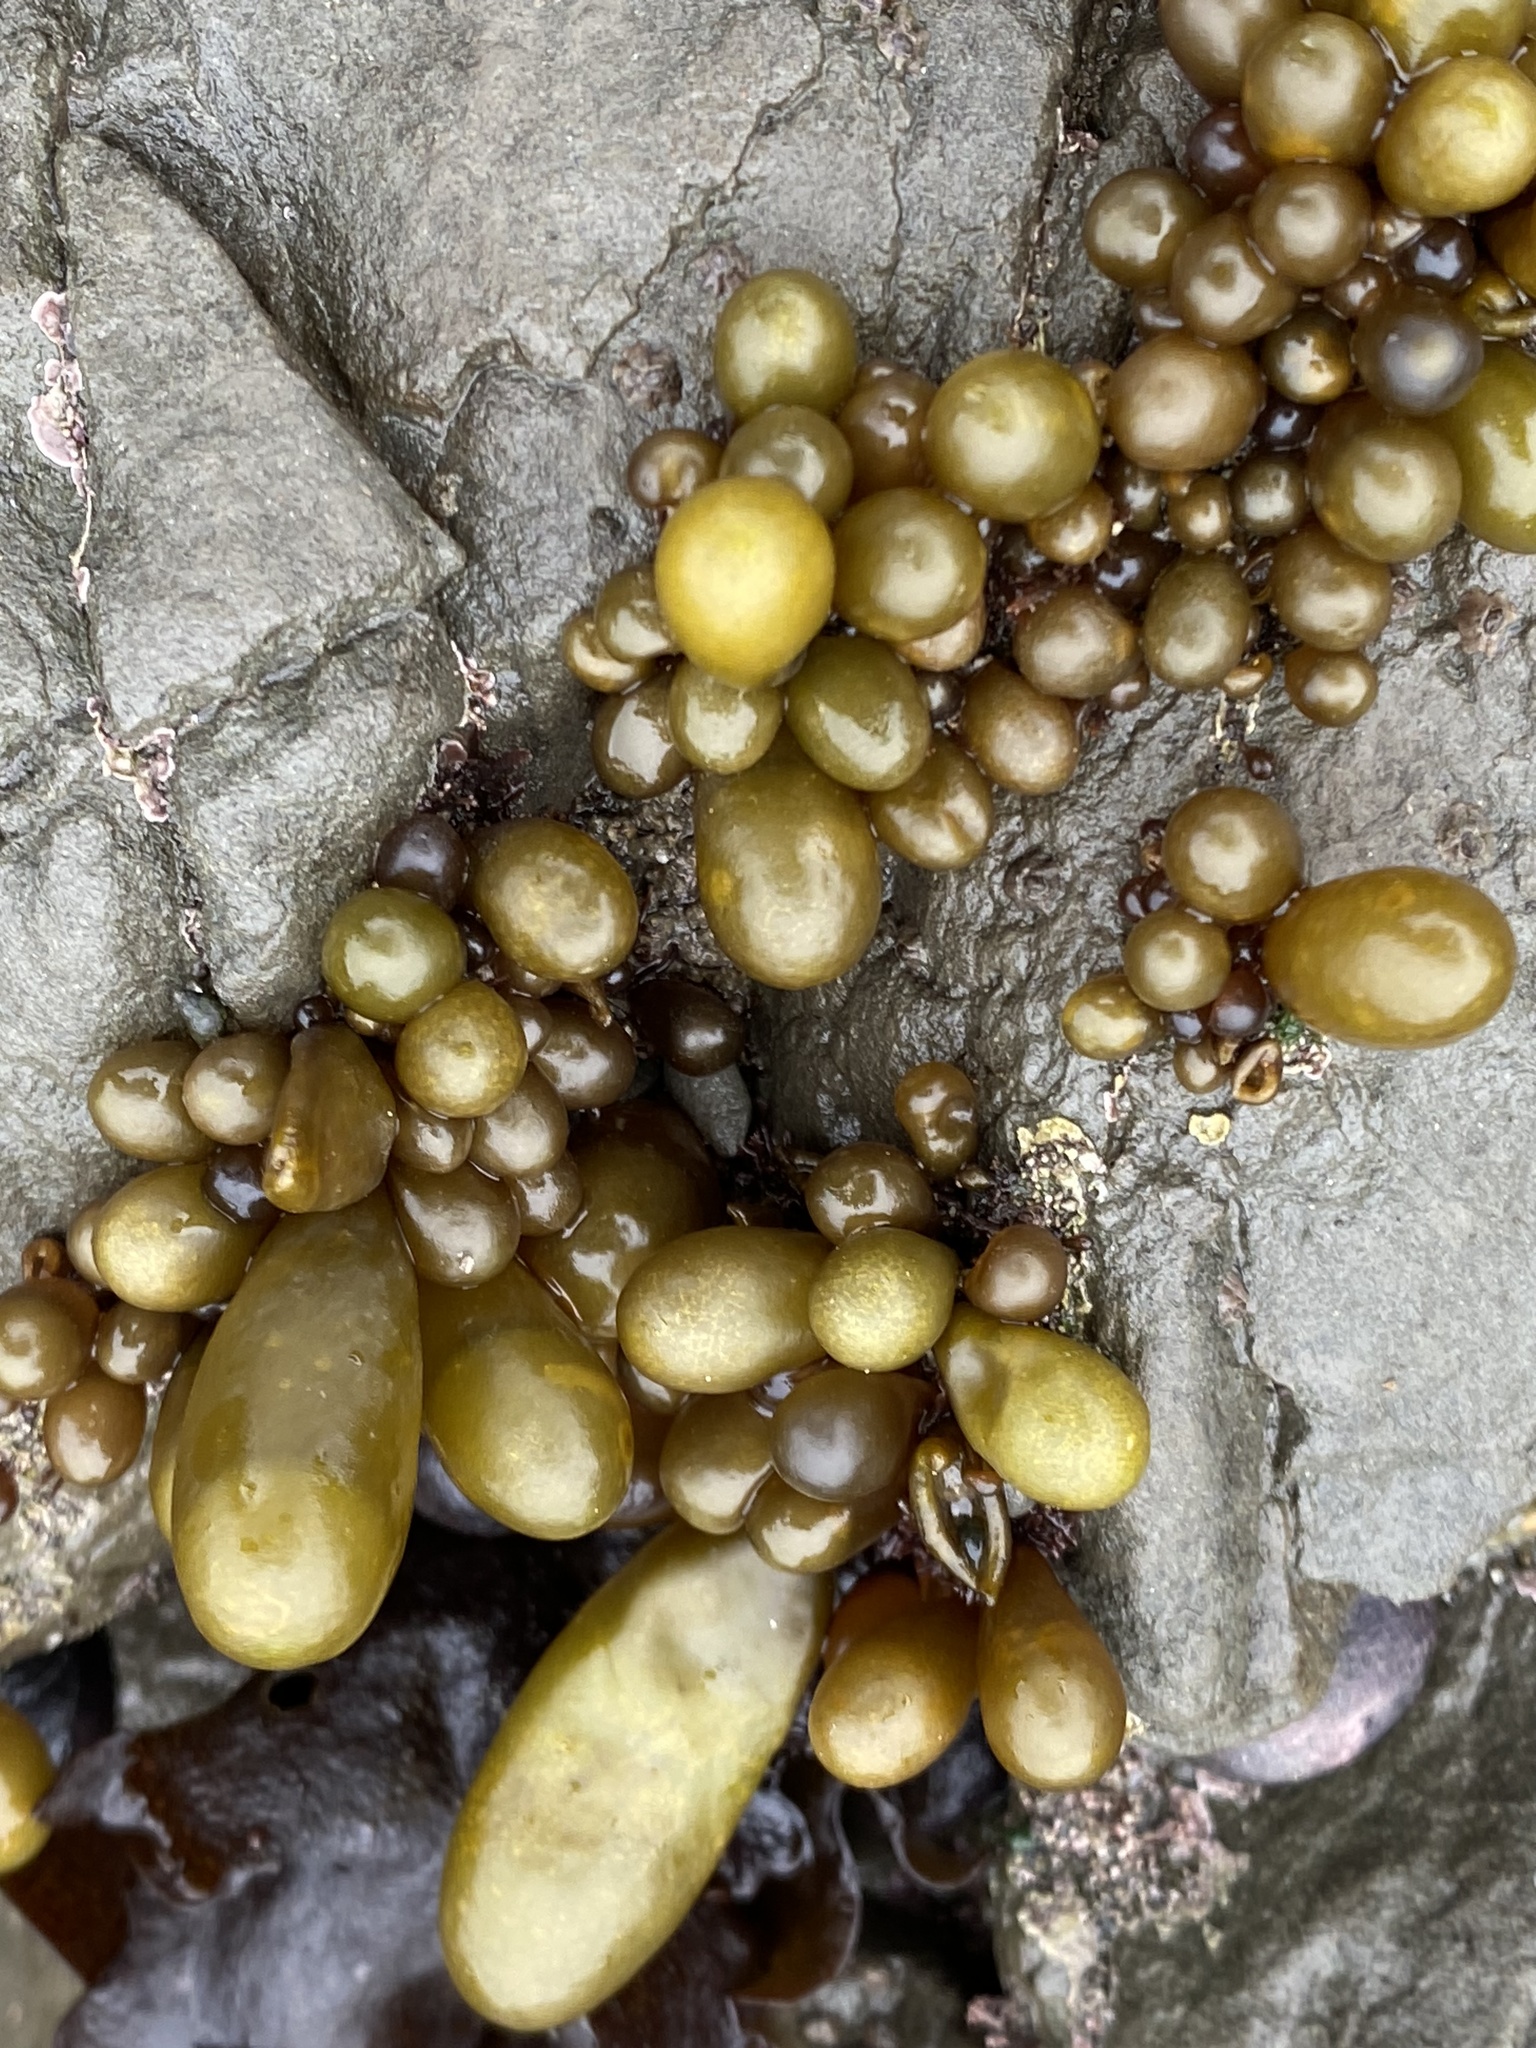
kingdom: Plantae
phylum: Rhodophyta
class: Florideophyceae
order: Palmariales
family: Palmariaceae
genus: Halosaccion
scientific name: Halosaccion glandiforme
